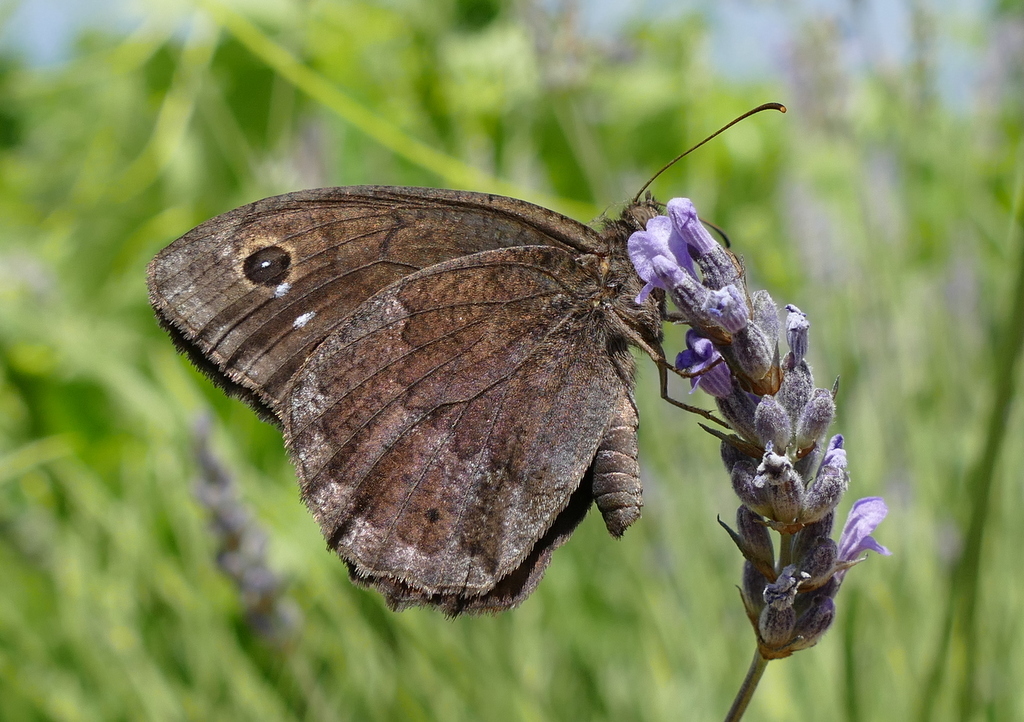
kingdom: Animalia
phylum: Arthropoda
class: Insecta
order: Lepidoptera
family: Nymphalidae
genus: Satyrus
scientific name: Satyrus ferula
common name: Great sooty satyr
